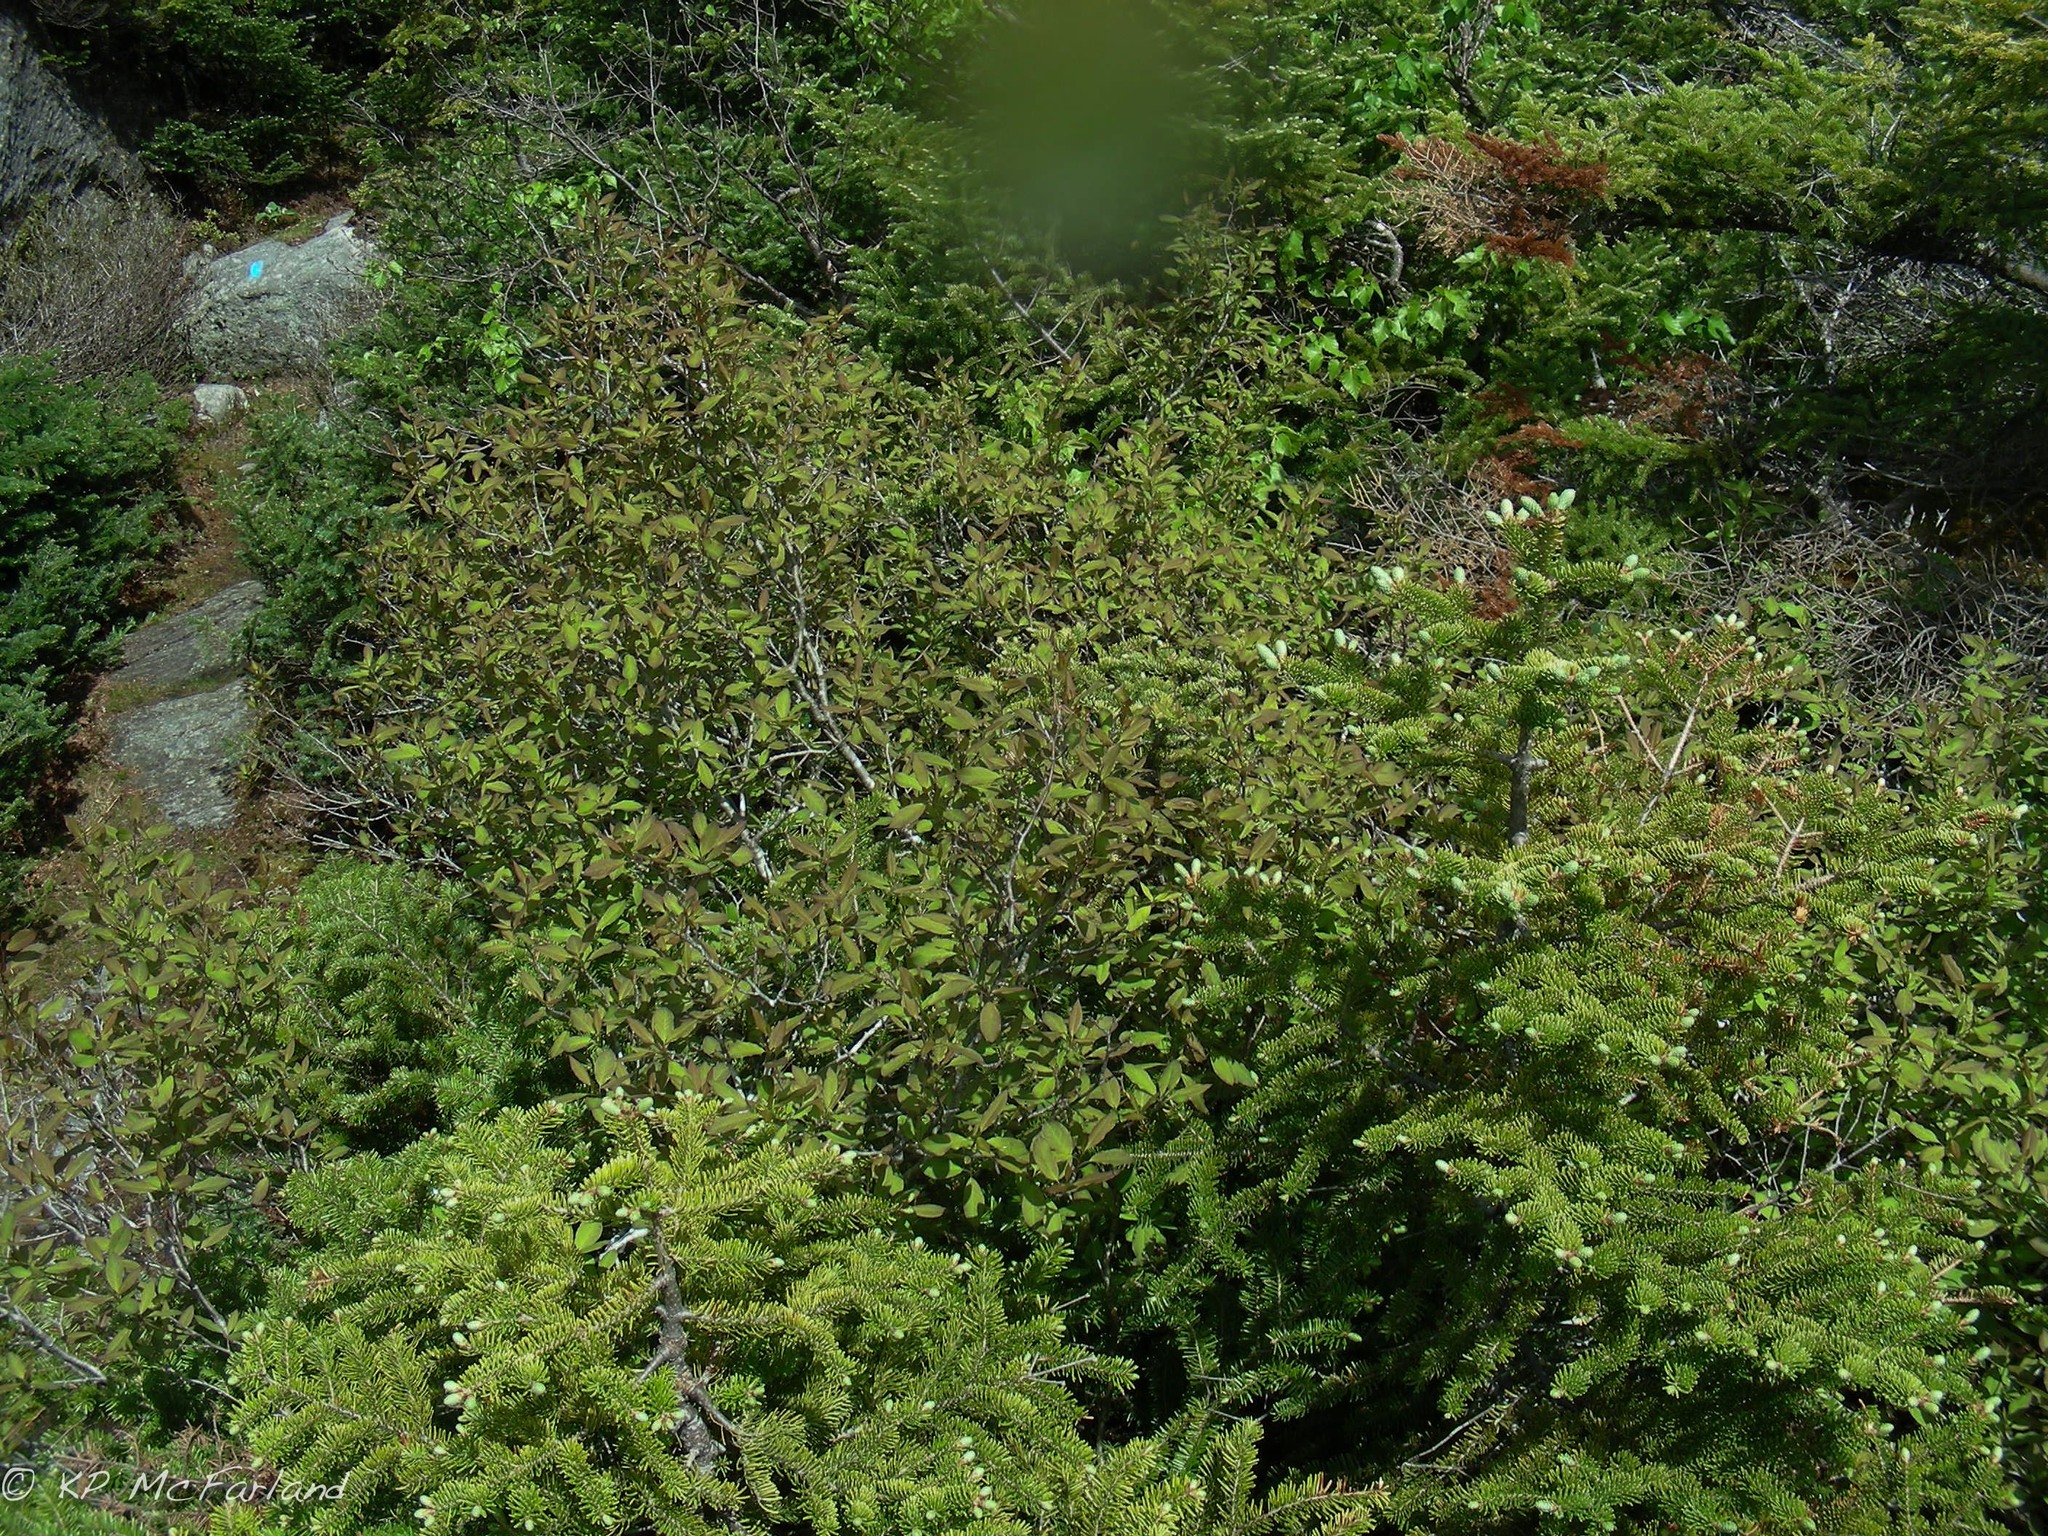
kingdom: Plantae
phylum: Tracheophyta
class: Magnoliopsida
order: Aquifoliales
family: Aquifoliaceae
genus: Ilex
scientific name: Ilex mucronata
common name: Catberry
